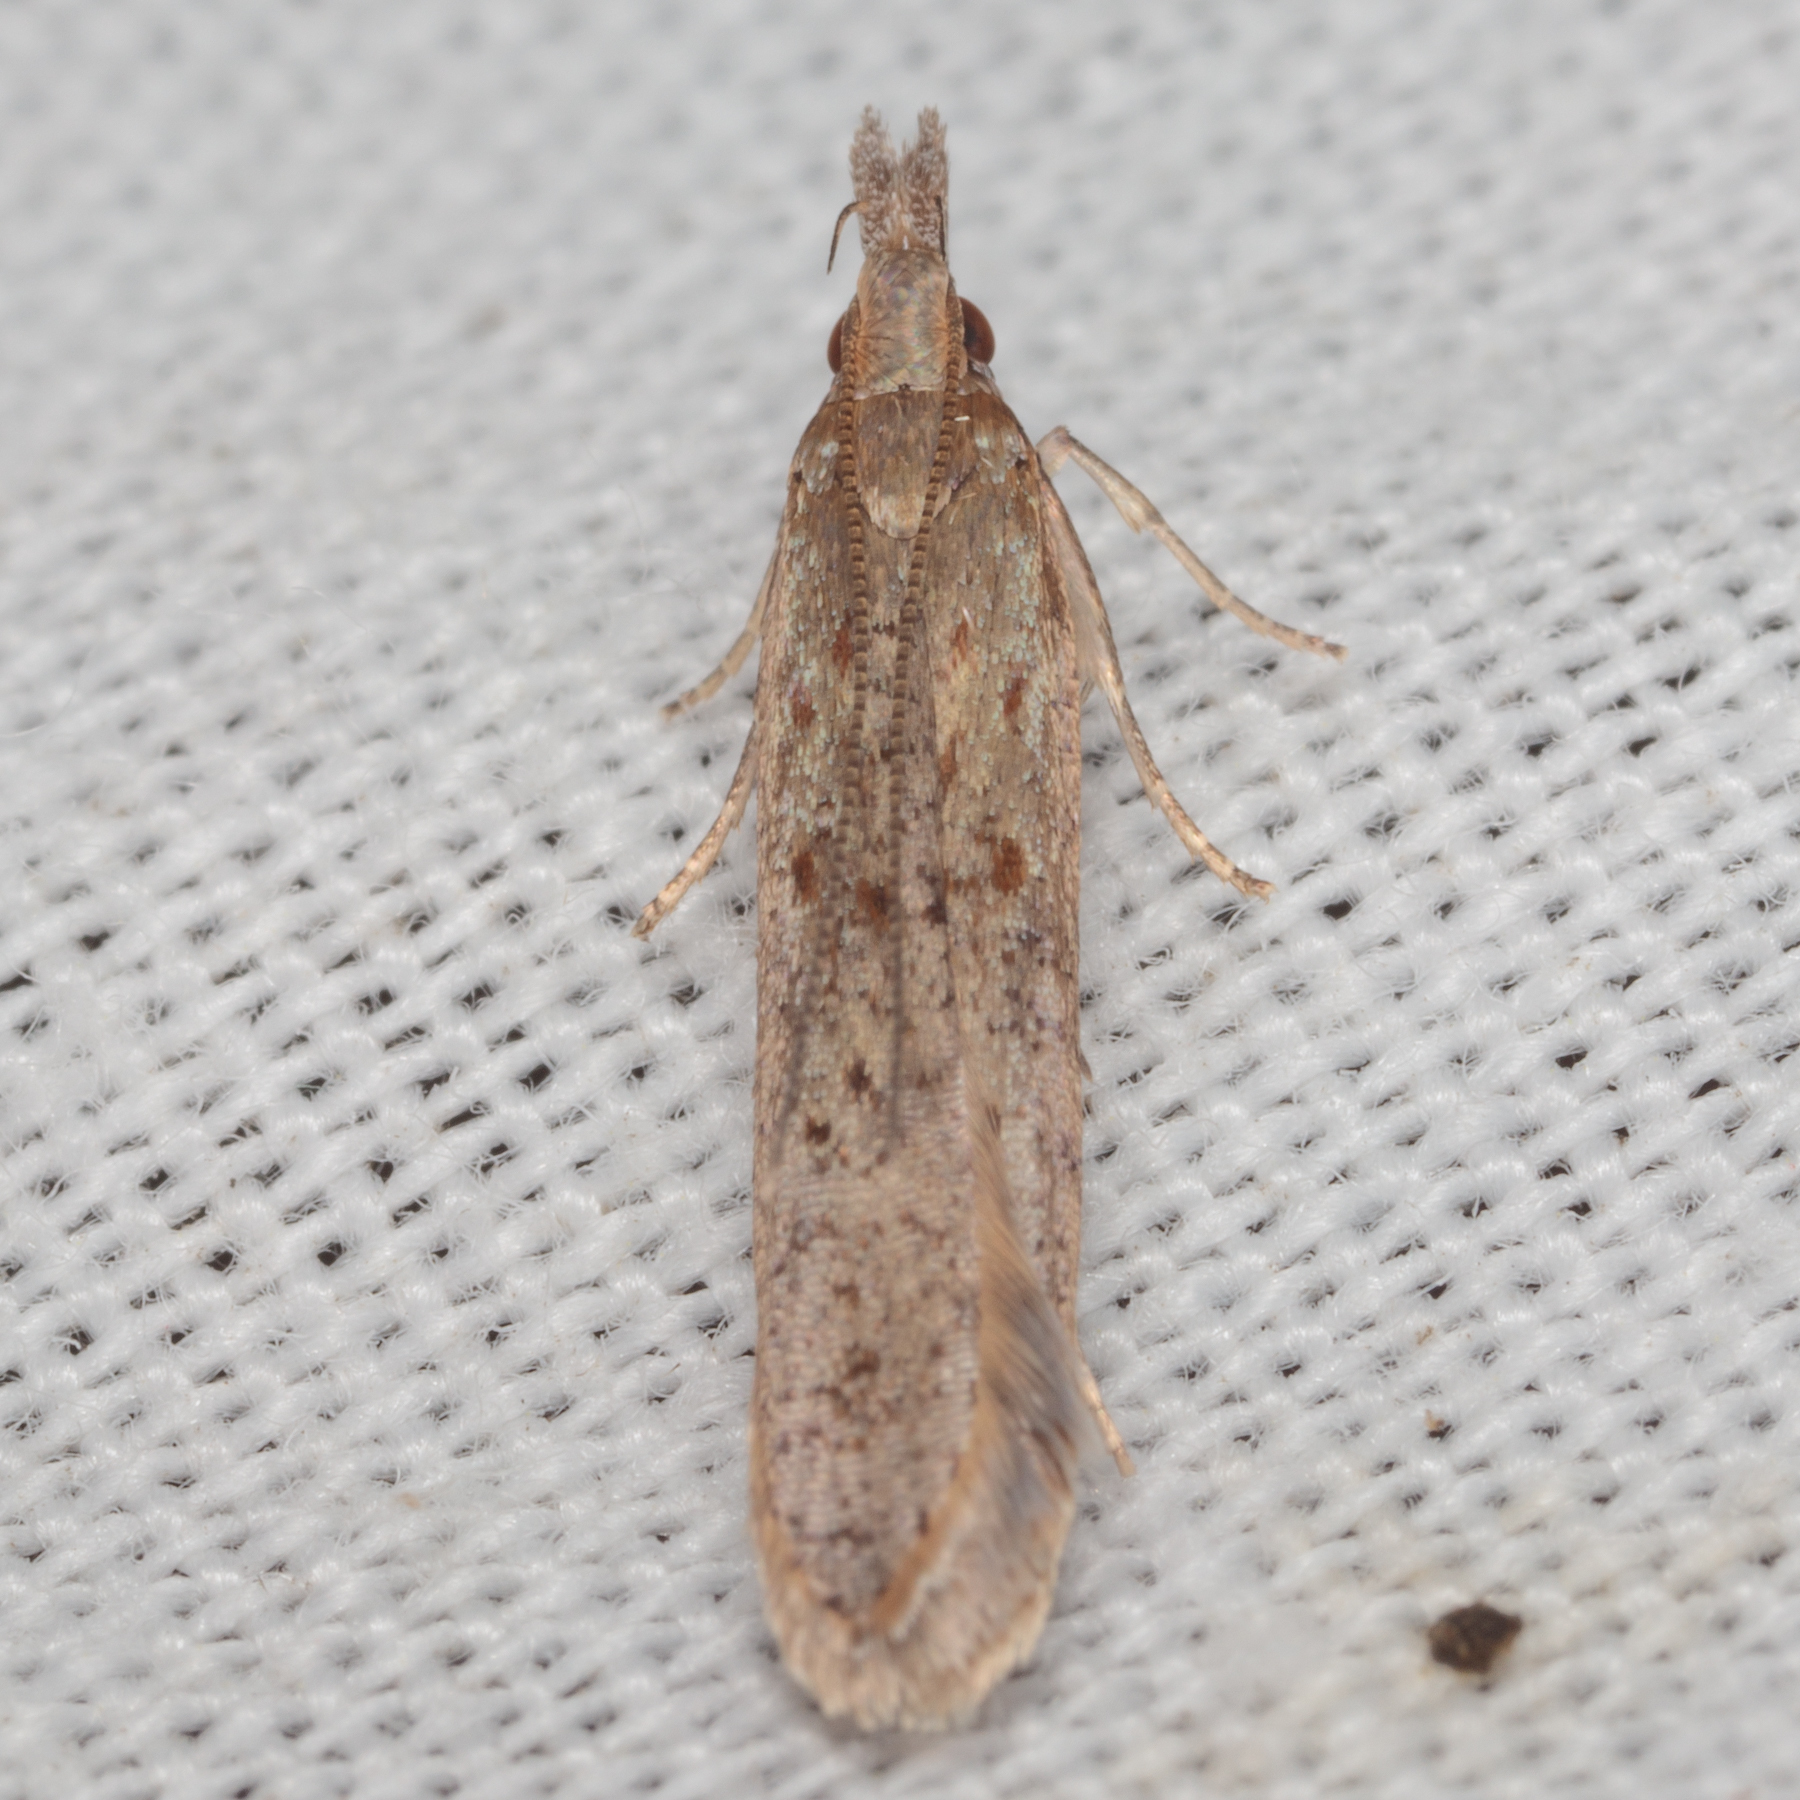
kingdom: Animalia
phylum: Arthropoda
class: Insecta
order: Lepidoptera
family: Gelechiidae
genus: Dichomeris
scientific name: Dichomeris ligulella
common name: Moth
